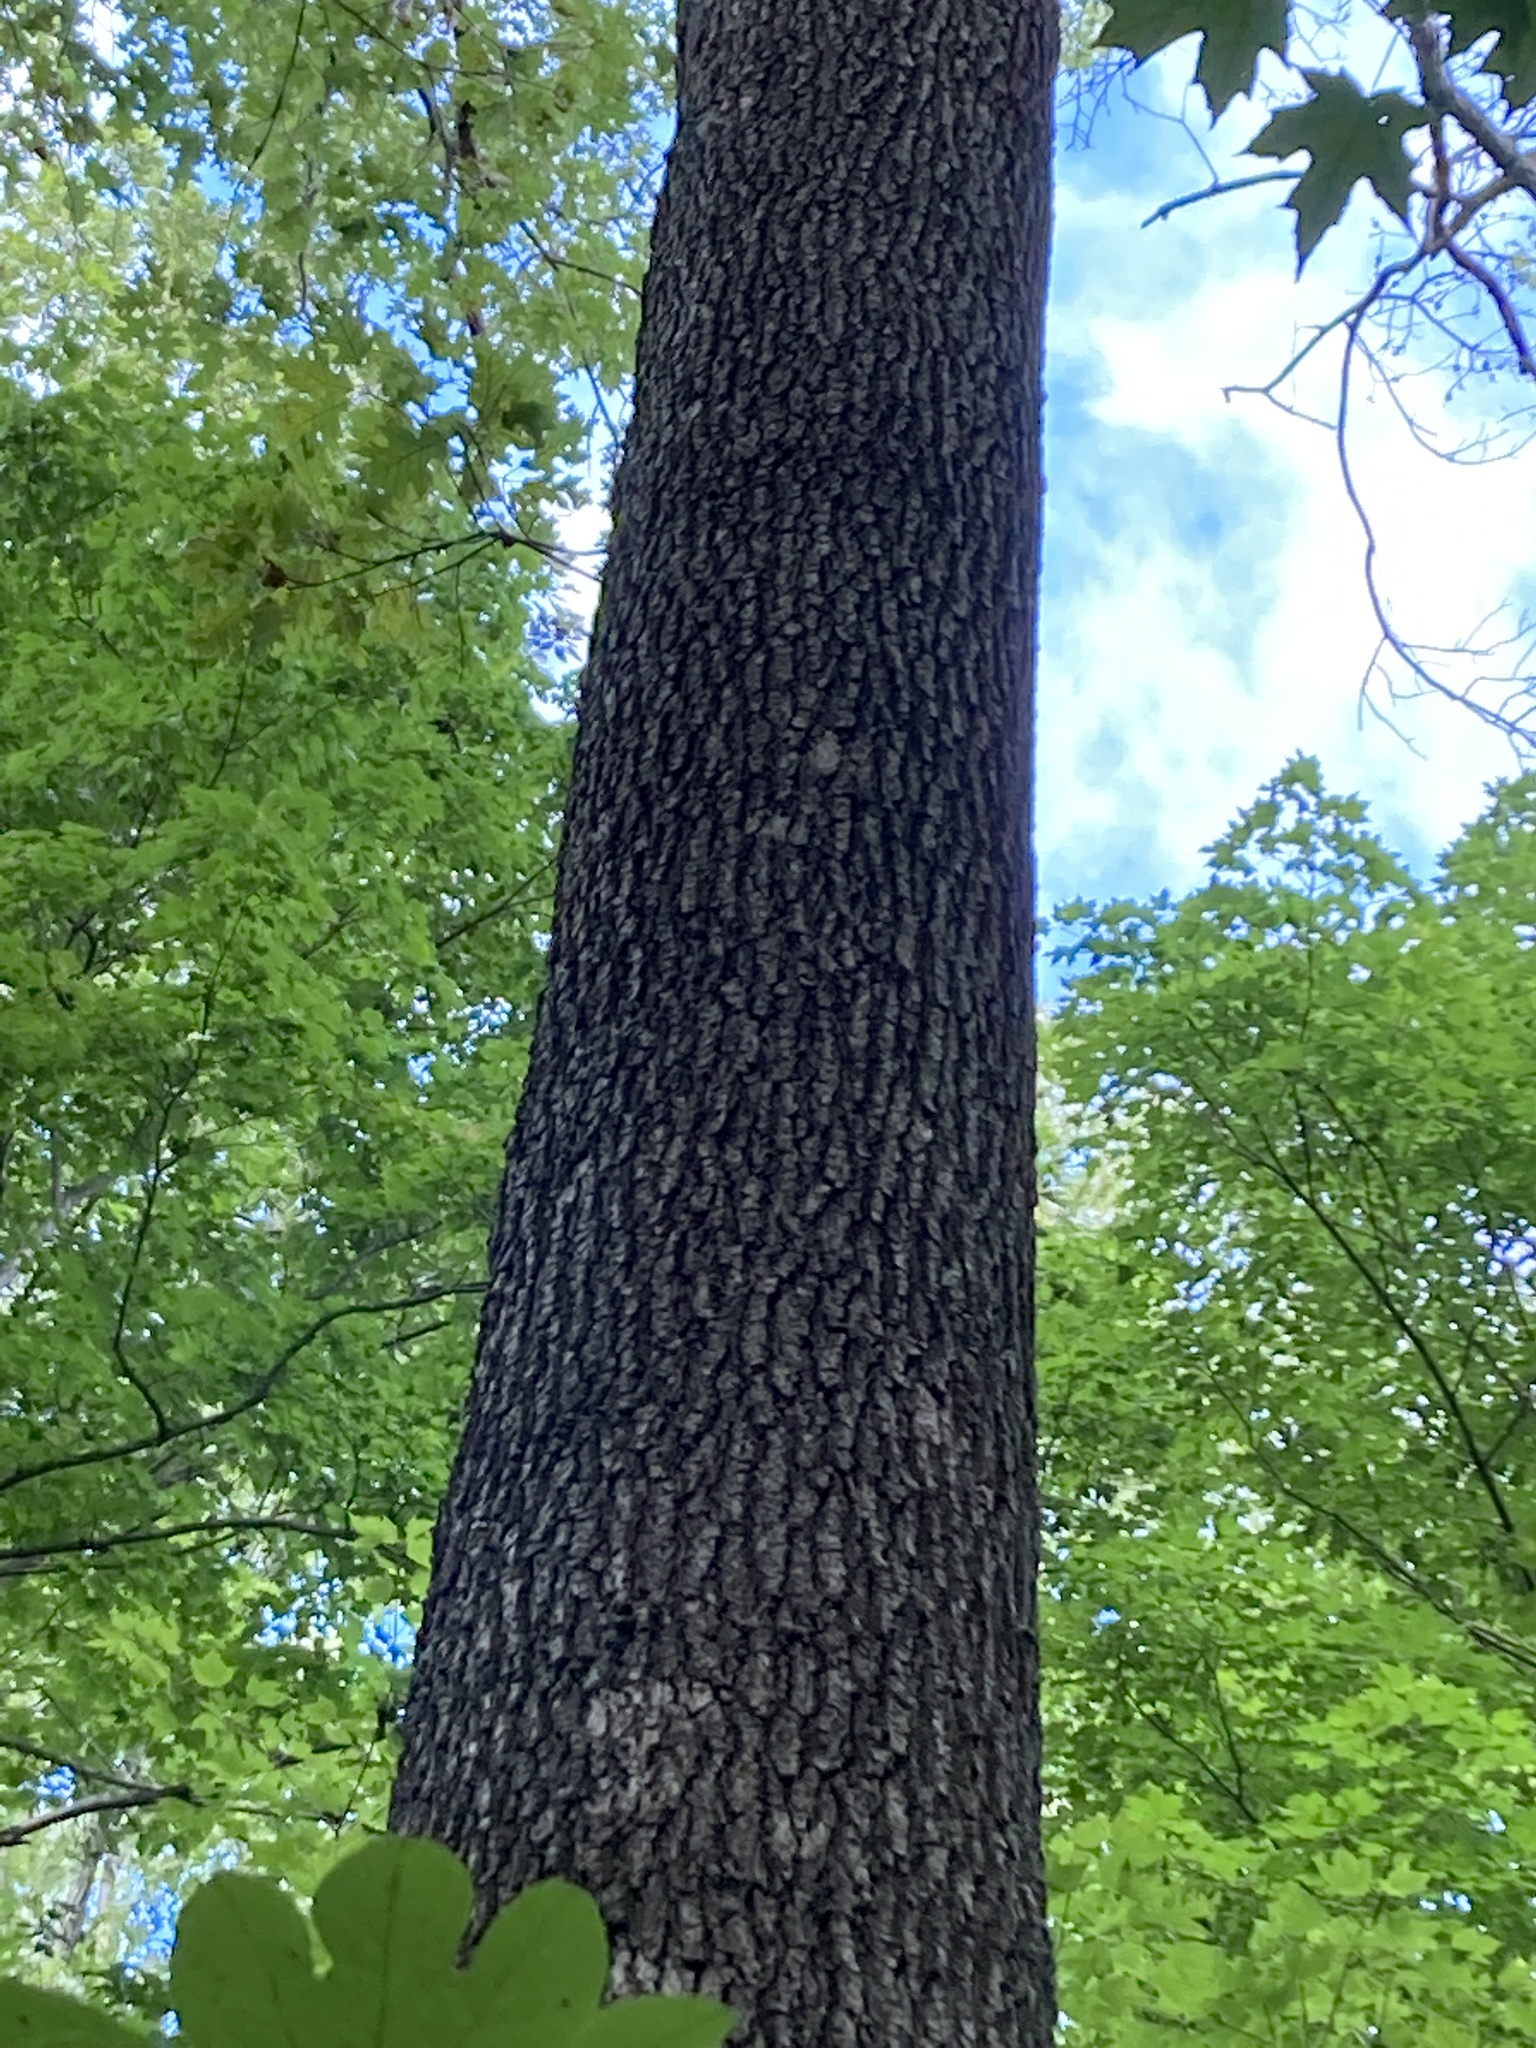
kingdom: Plantae
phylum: Tracheophyta
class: Magnoliopsida
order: Fagales
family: Fagaceae
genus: Quercus
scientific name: Quercus velutina
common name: Black oak
